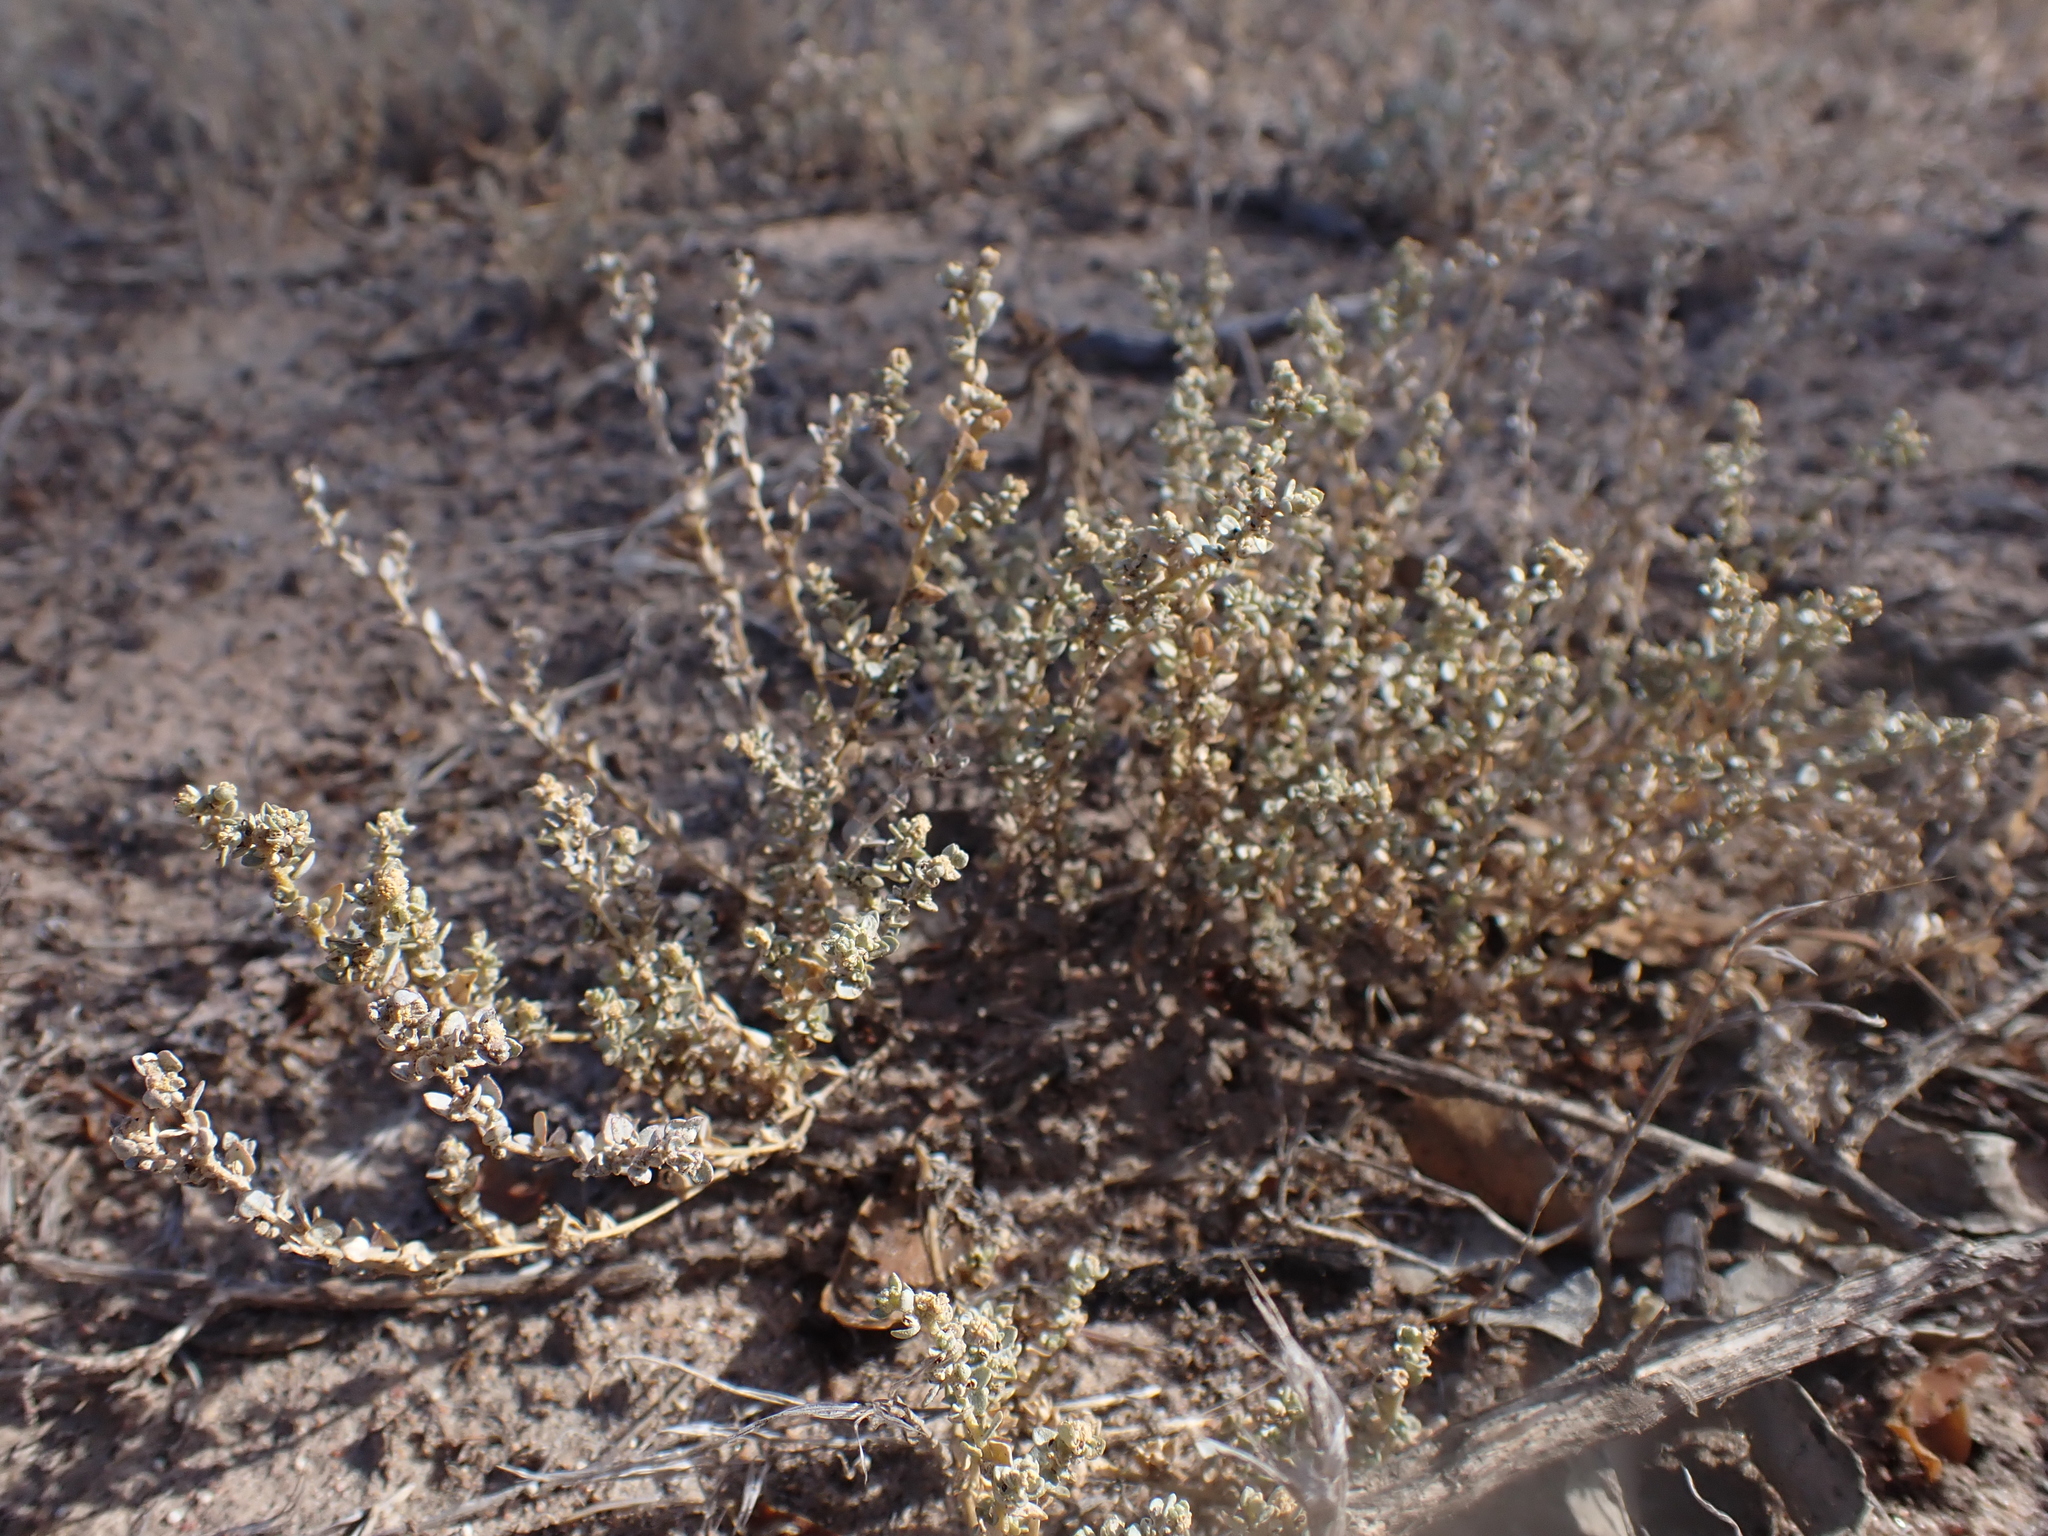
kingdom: Plantae
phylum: Tracheophyta
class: Magnoliopsida
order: Caryophyllales
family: Amaranthaceae
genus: Atriplex
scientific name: Atriplex pumilio
